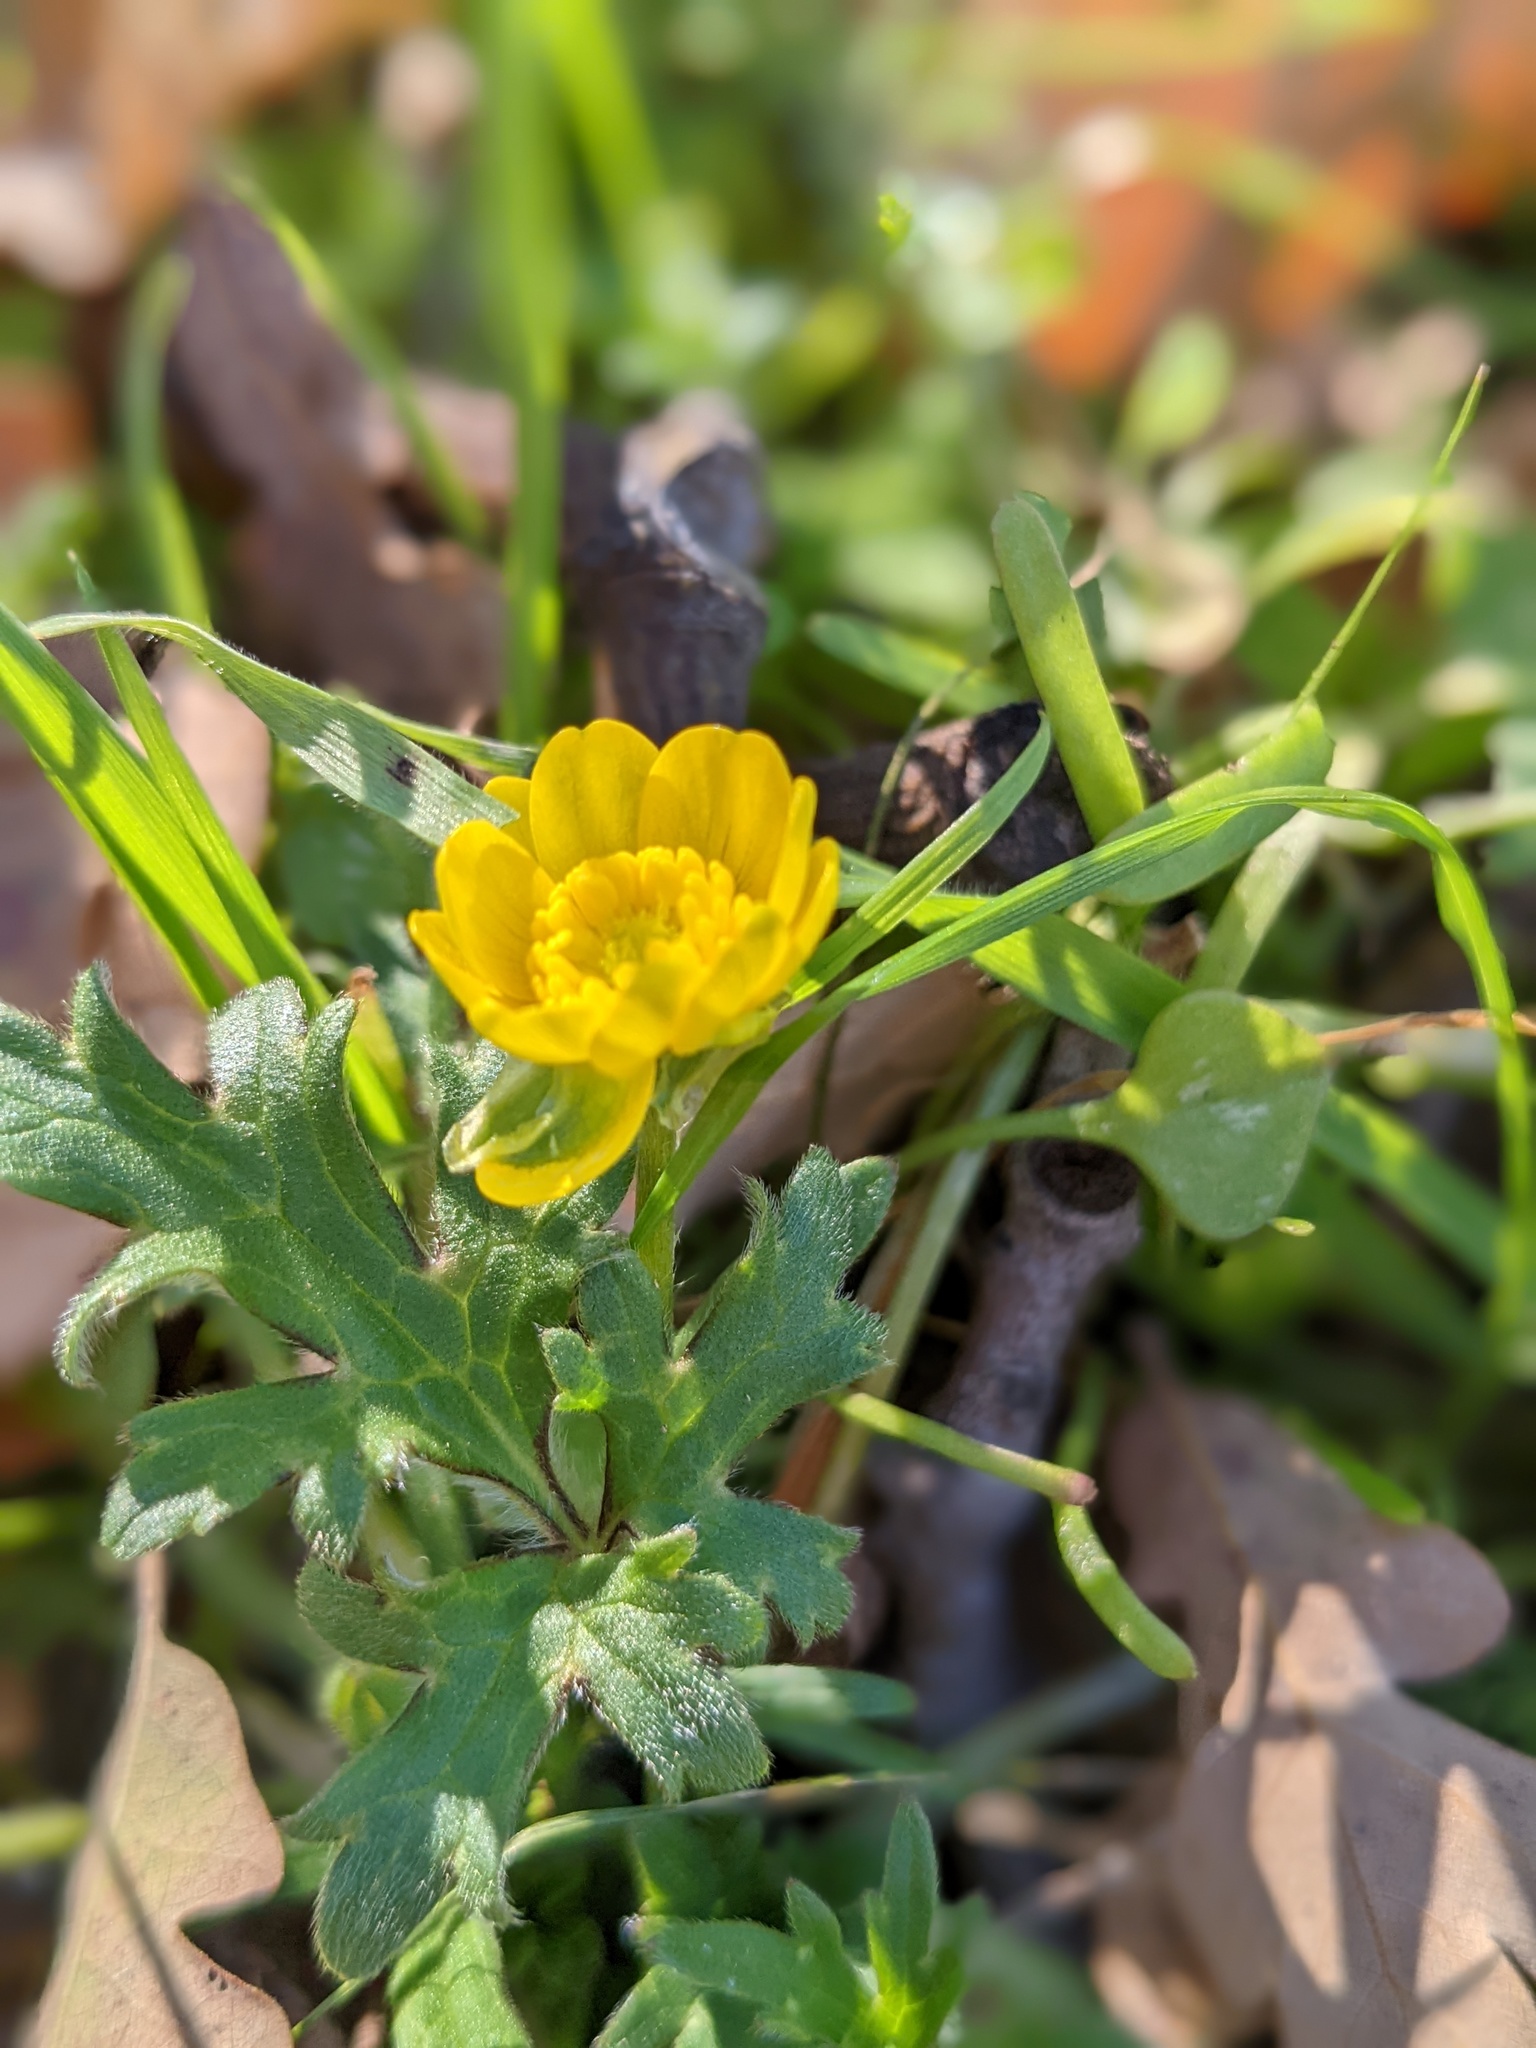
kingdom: Plantae
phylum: Tracheophyta
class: Magnoliopsida
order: Ranunculales
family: Ranunculaceae
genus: Ranunculus
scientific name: Ranunculus californicus
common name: California buttercup
